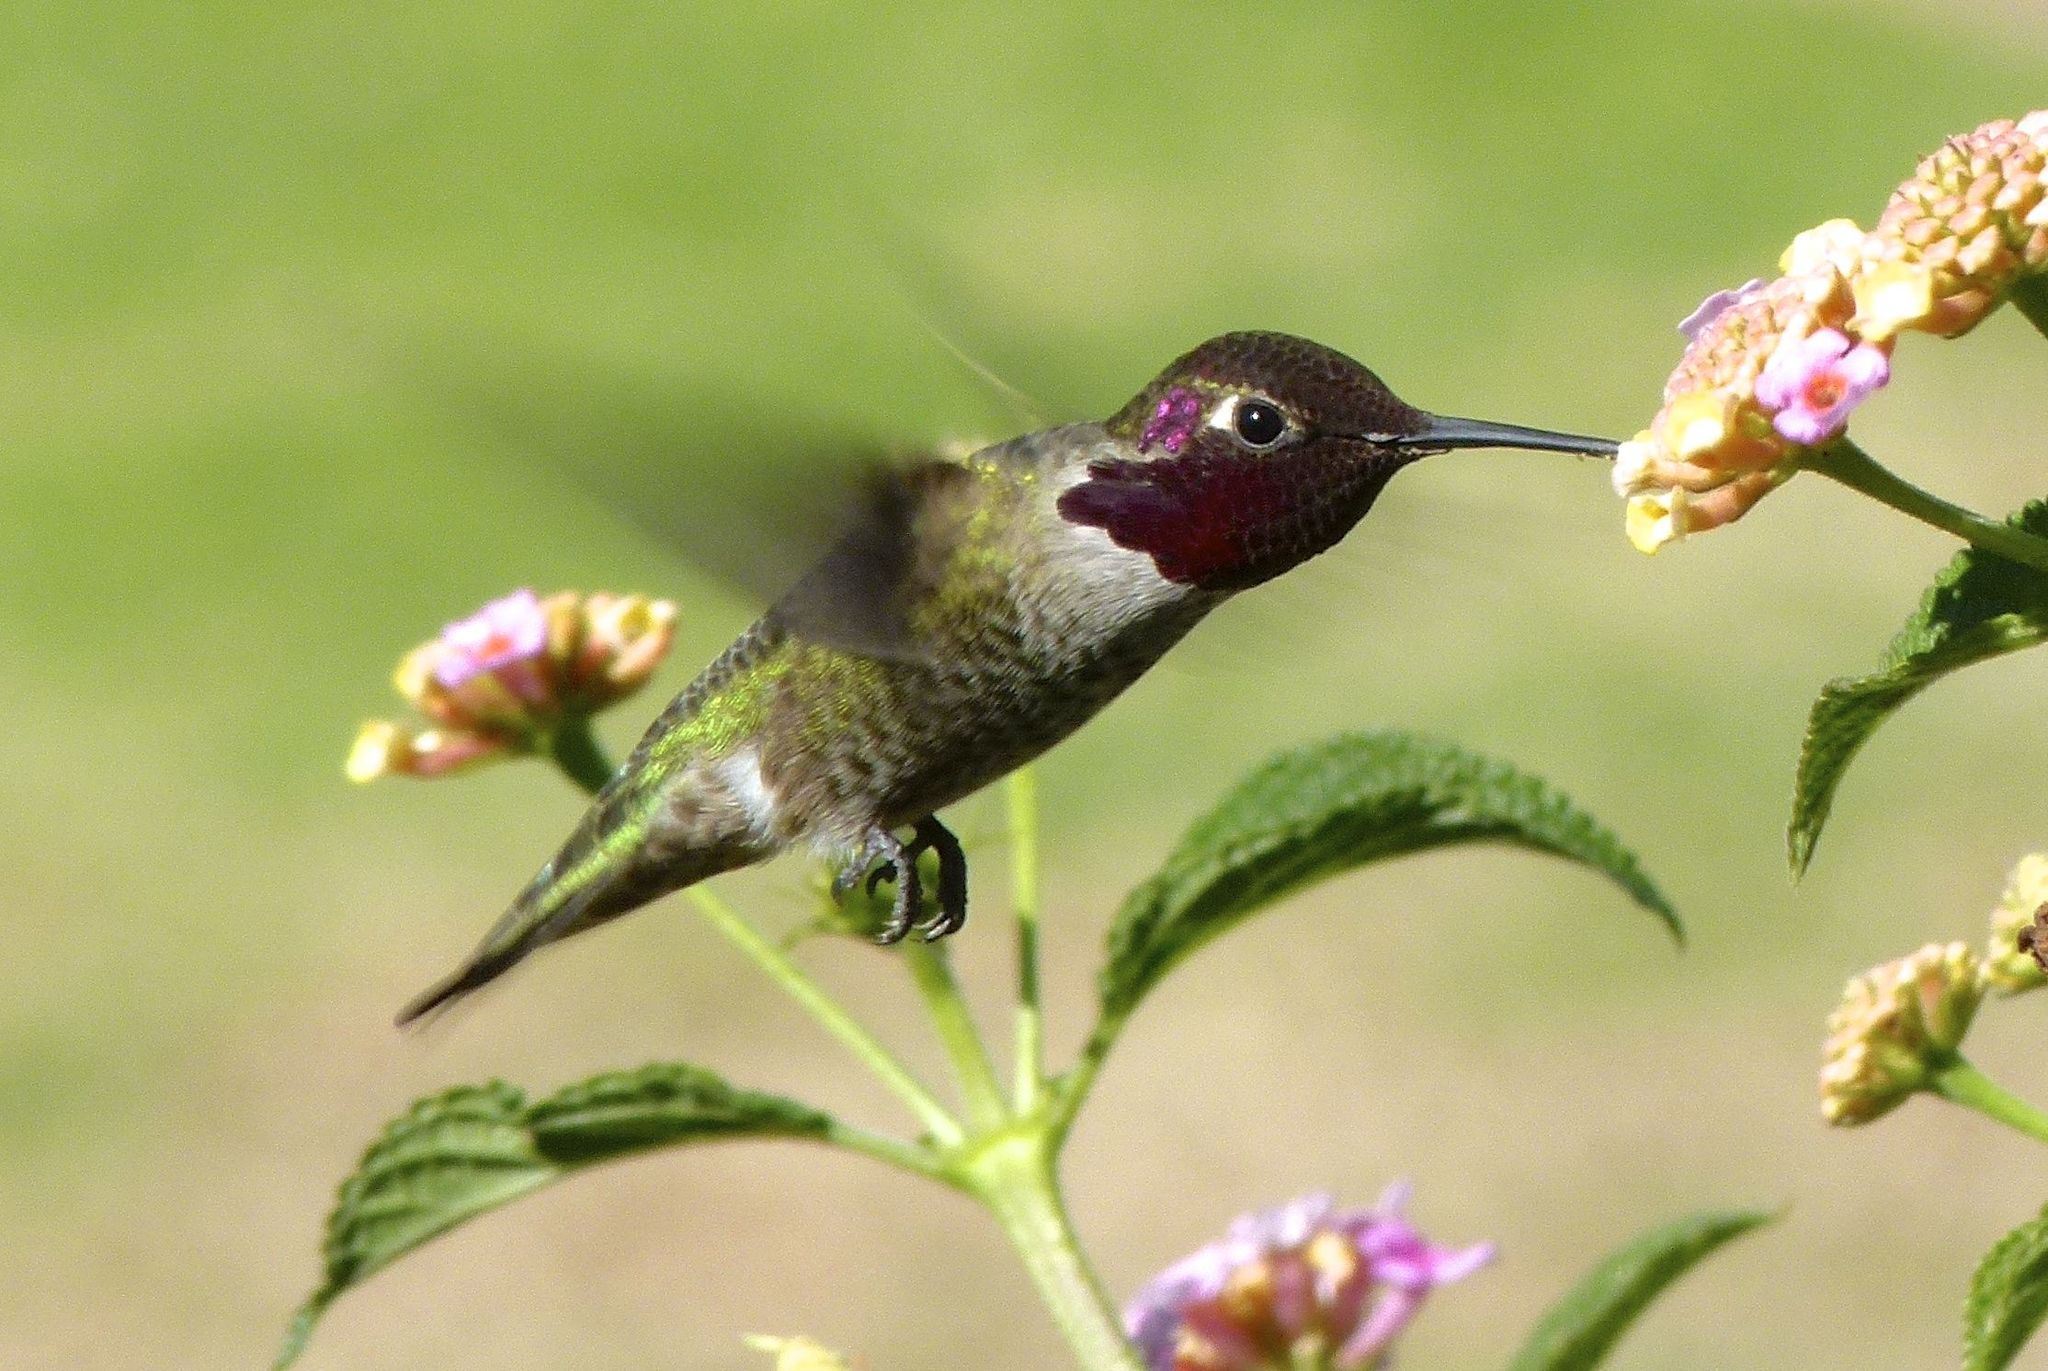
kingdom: Animalia
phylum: Chordata
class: Aves
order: Apodiformes
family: Trochilidae
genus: Calypte
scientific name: Calypte anna
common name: Anna's hummingbird
